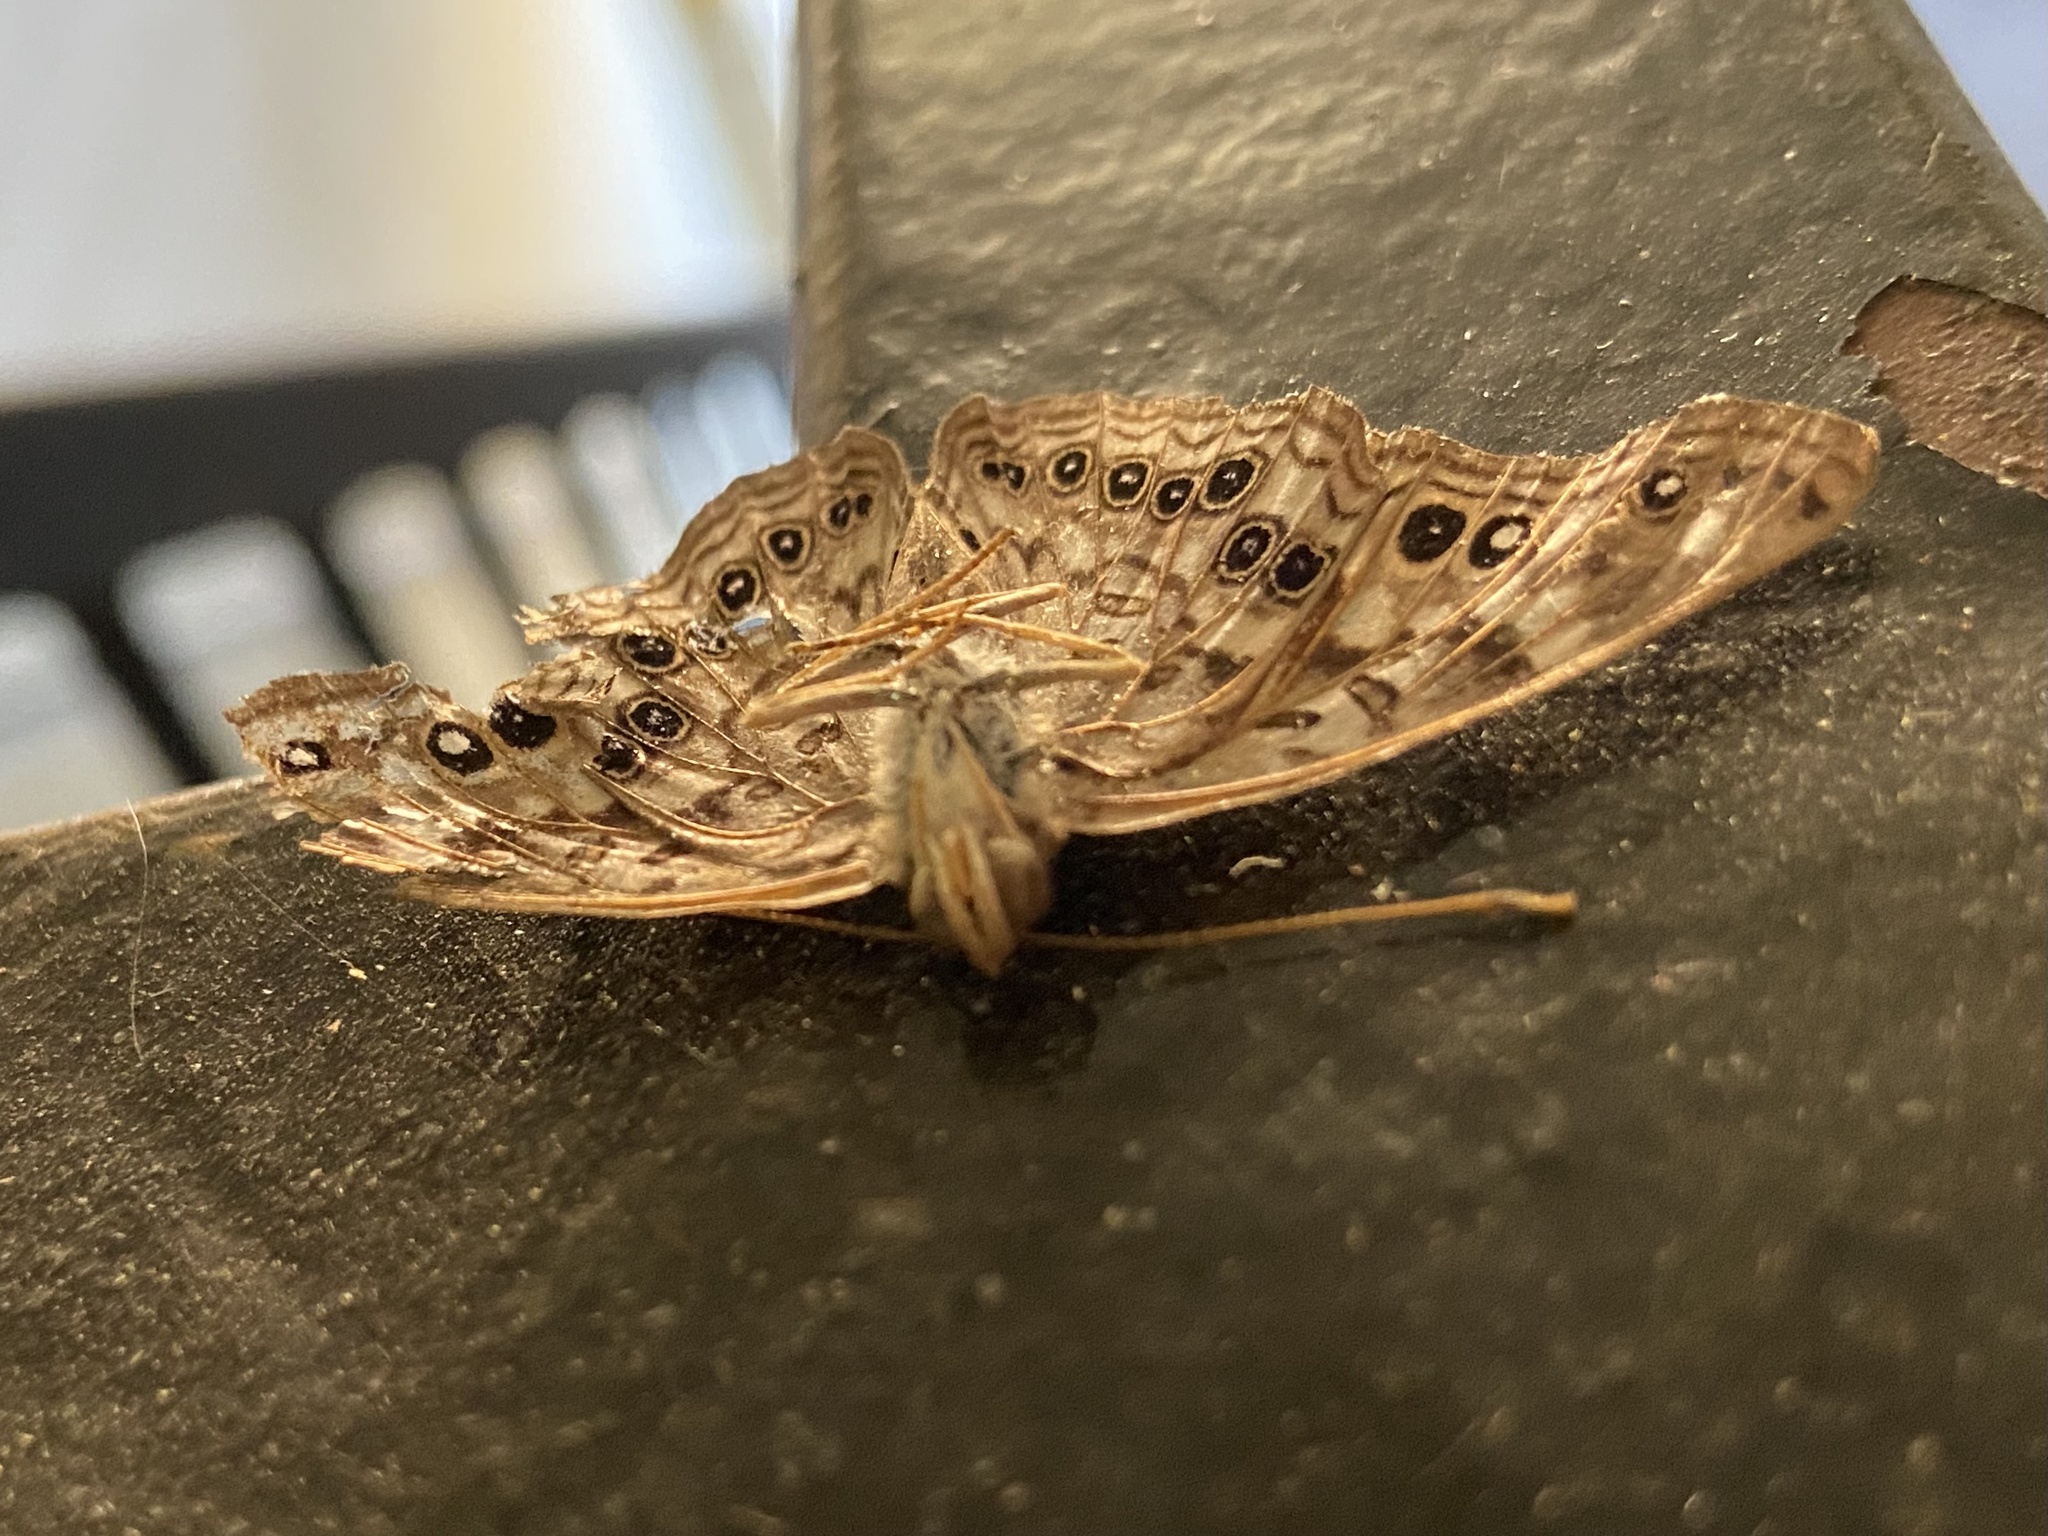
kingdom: Animalia
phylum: Arthropoda
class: Insecta
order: Lepidoptera
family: Nymphalidae
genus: Asterocampa
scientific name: Asterocampa celtis
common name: Hackberry emperor
